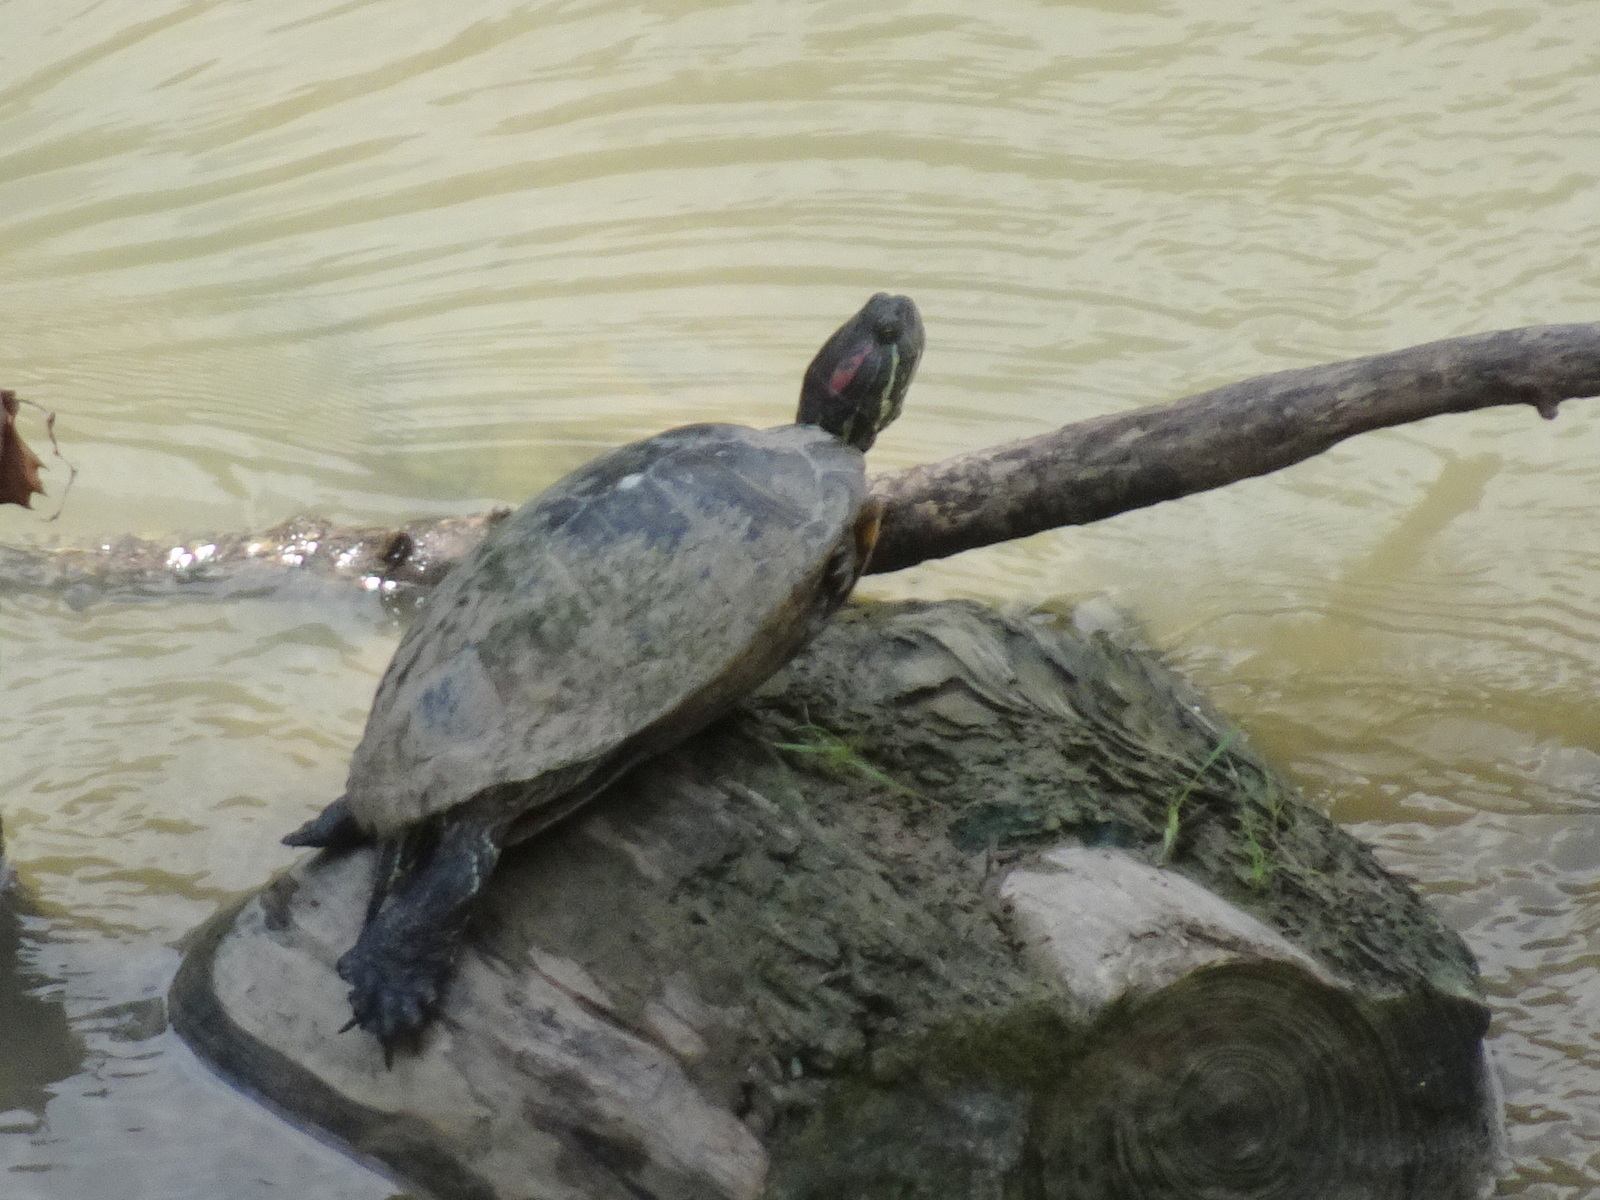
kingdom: Animalia
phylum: Chordata
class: Testudines
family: Emydidae
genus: Trachemys
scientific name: Trachemys scripta
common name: Slider
